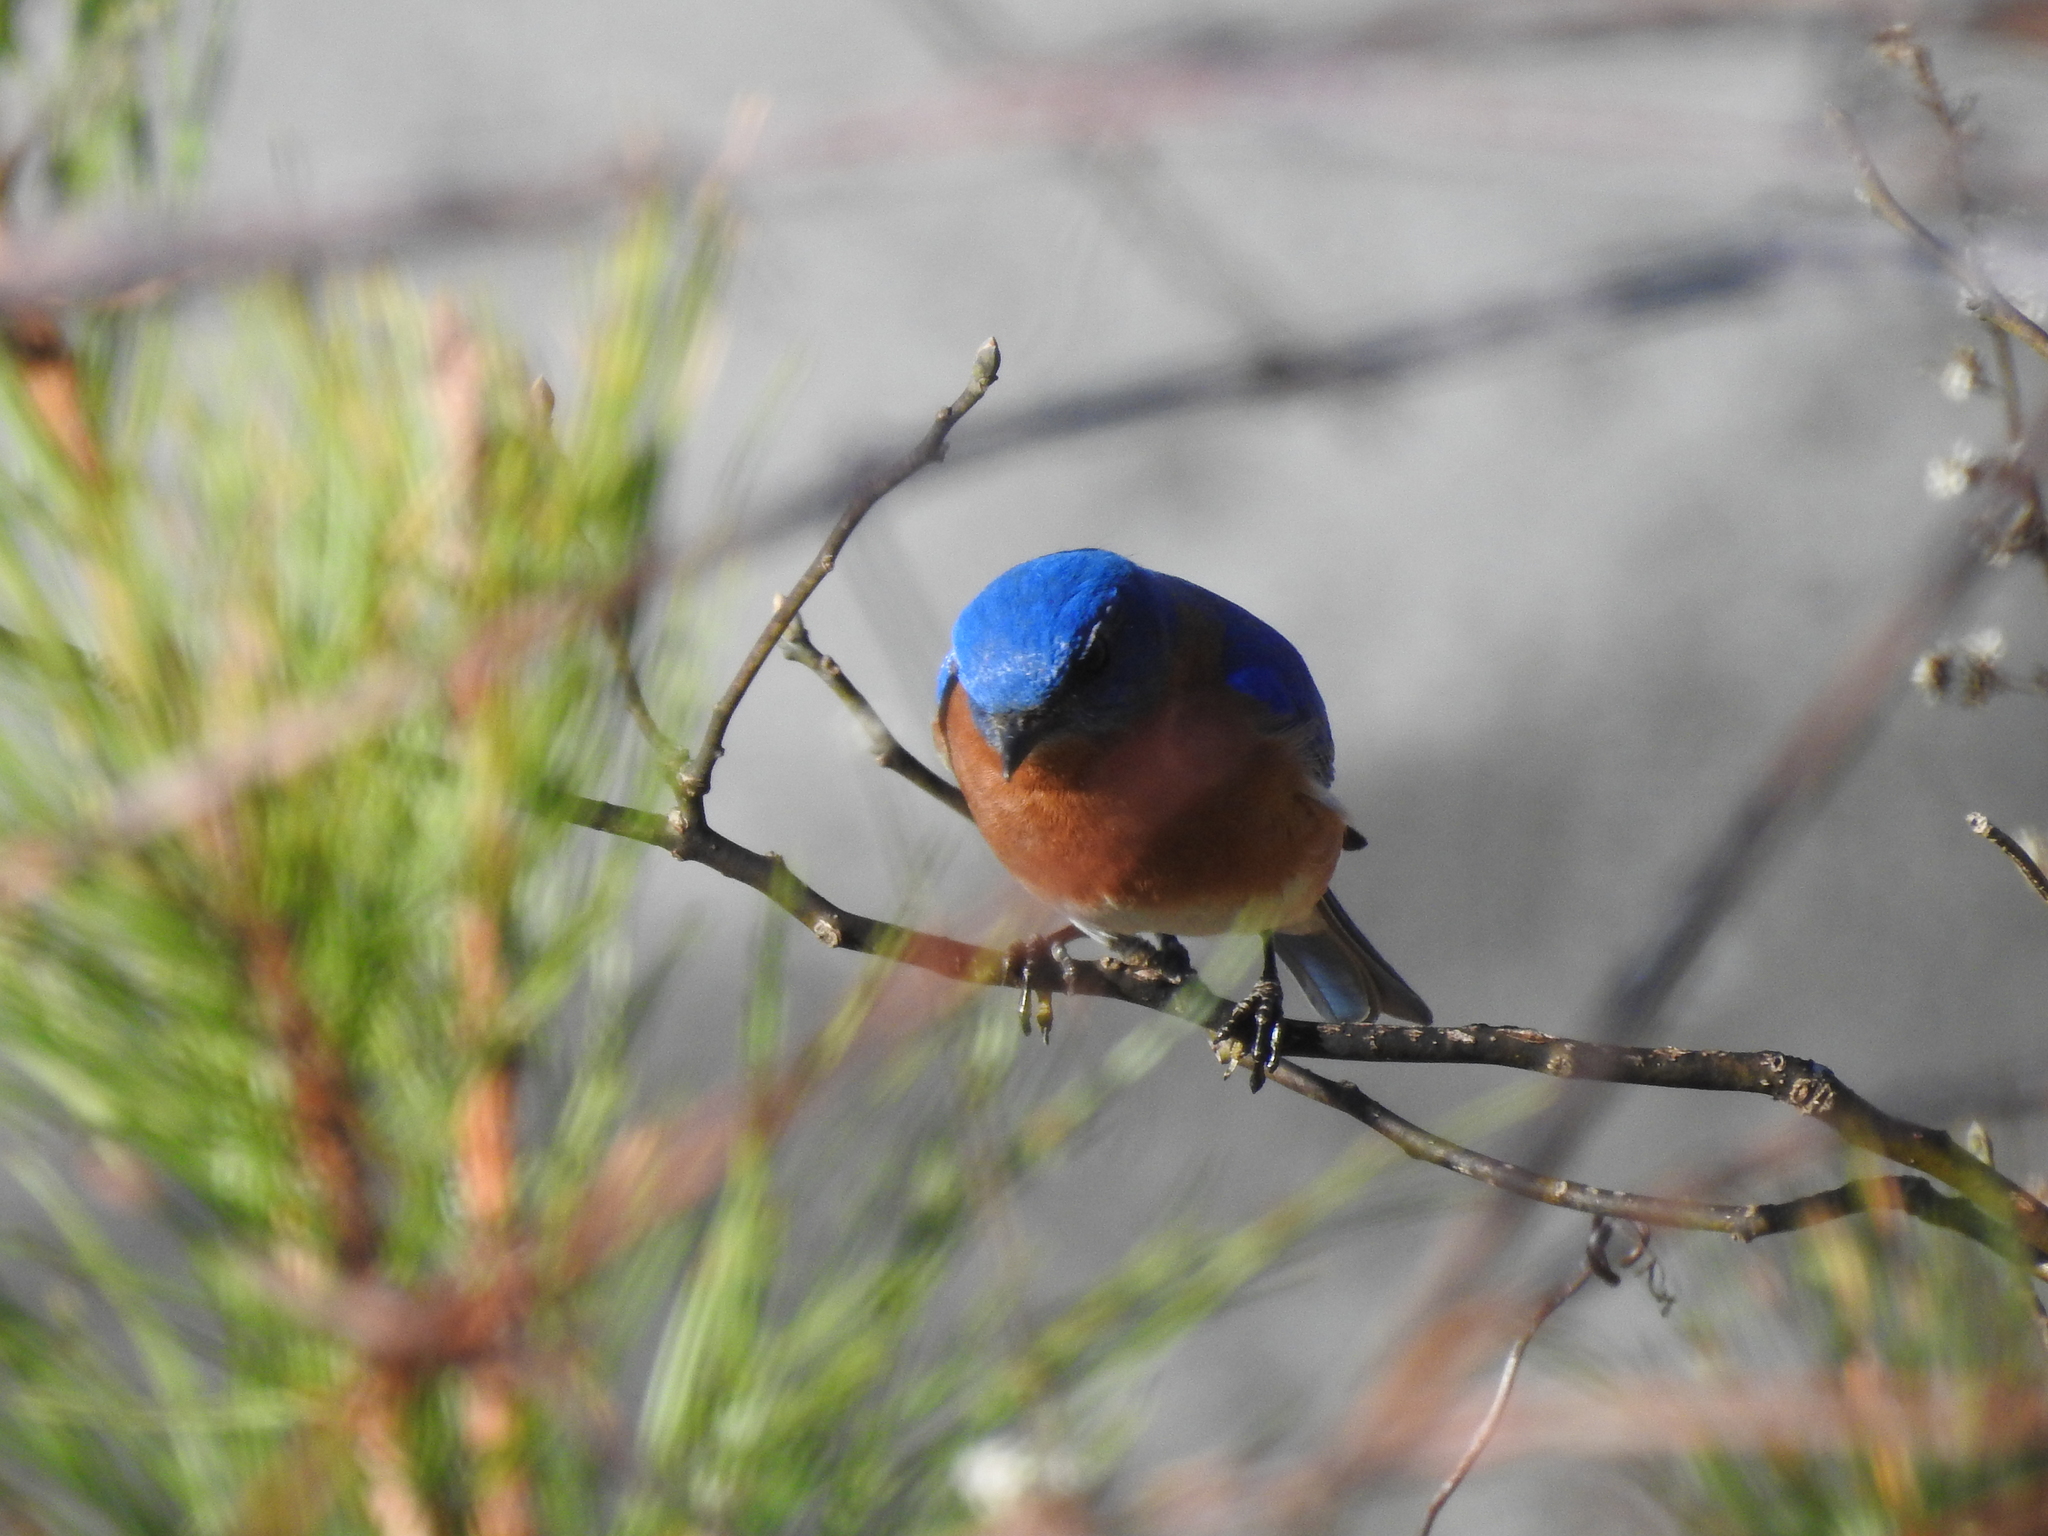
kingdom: Animalia
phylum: Chordata
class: Aves
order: Passeriformes
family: Turdidae
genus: Sialia
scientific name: Sialia sialis
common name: Eastern bluebird
